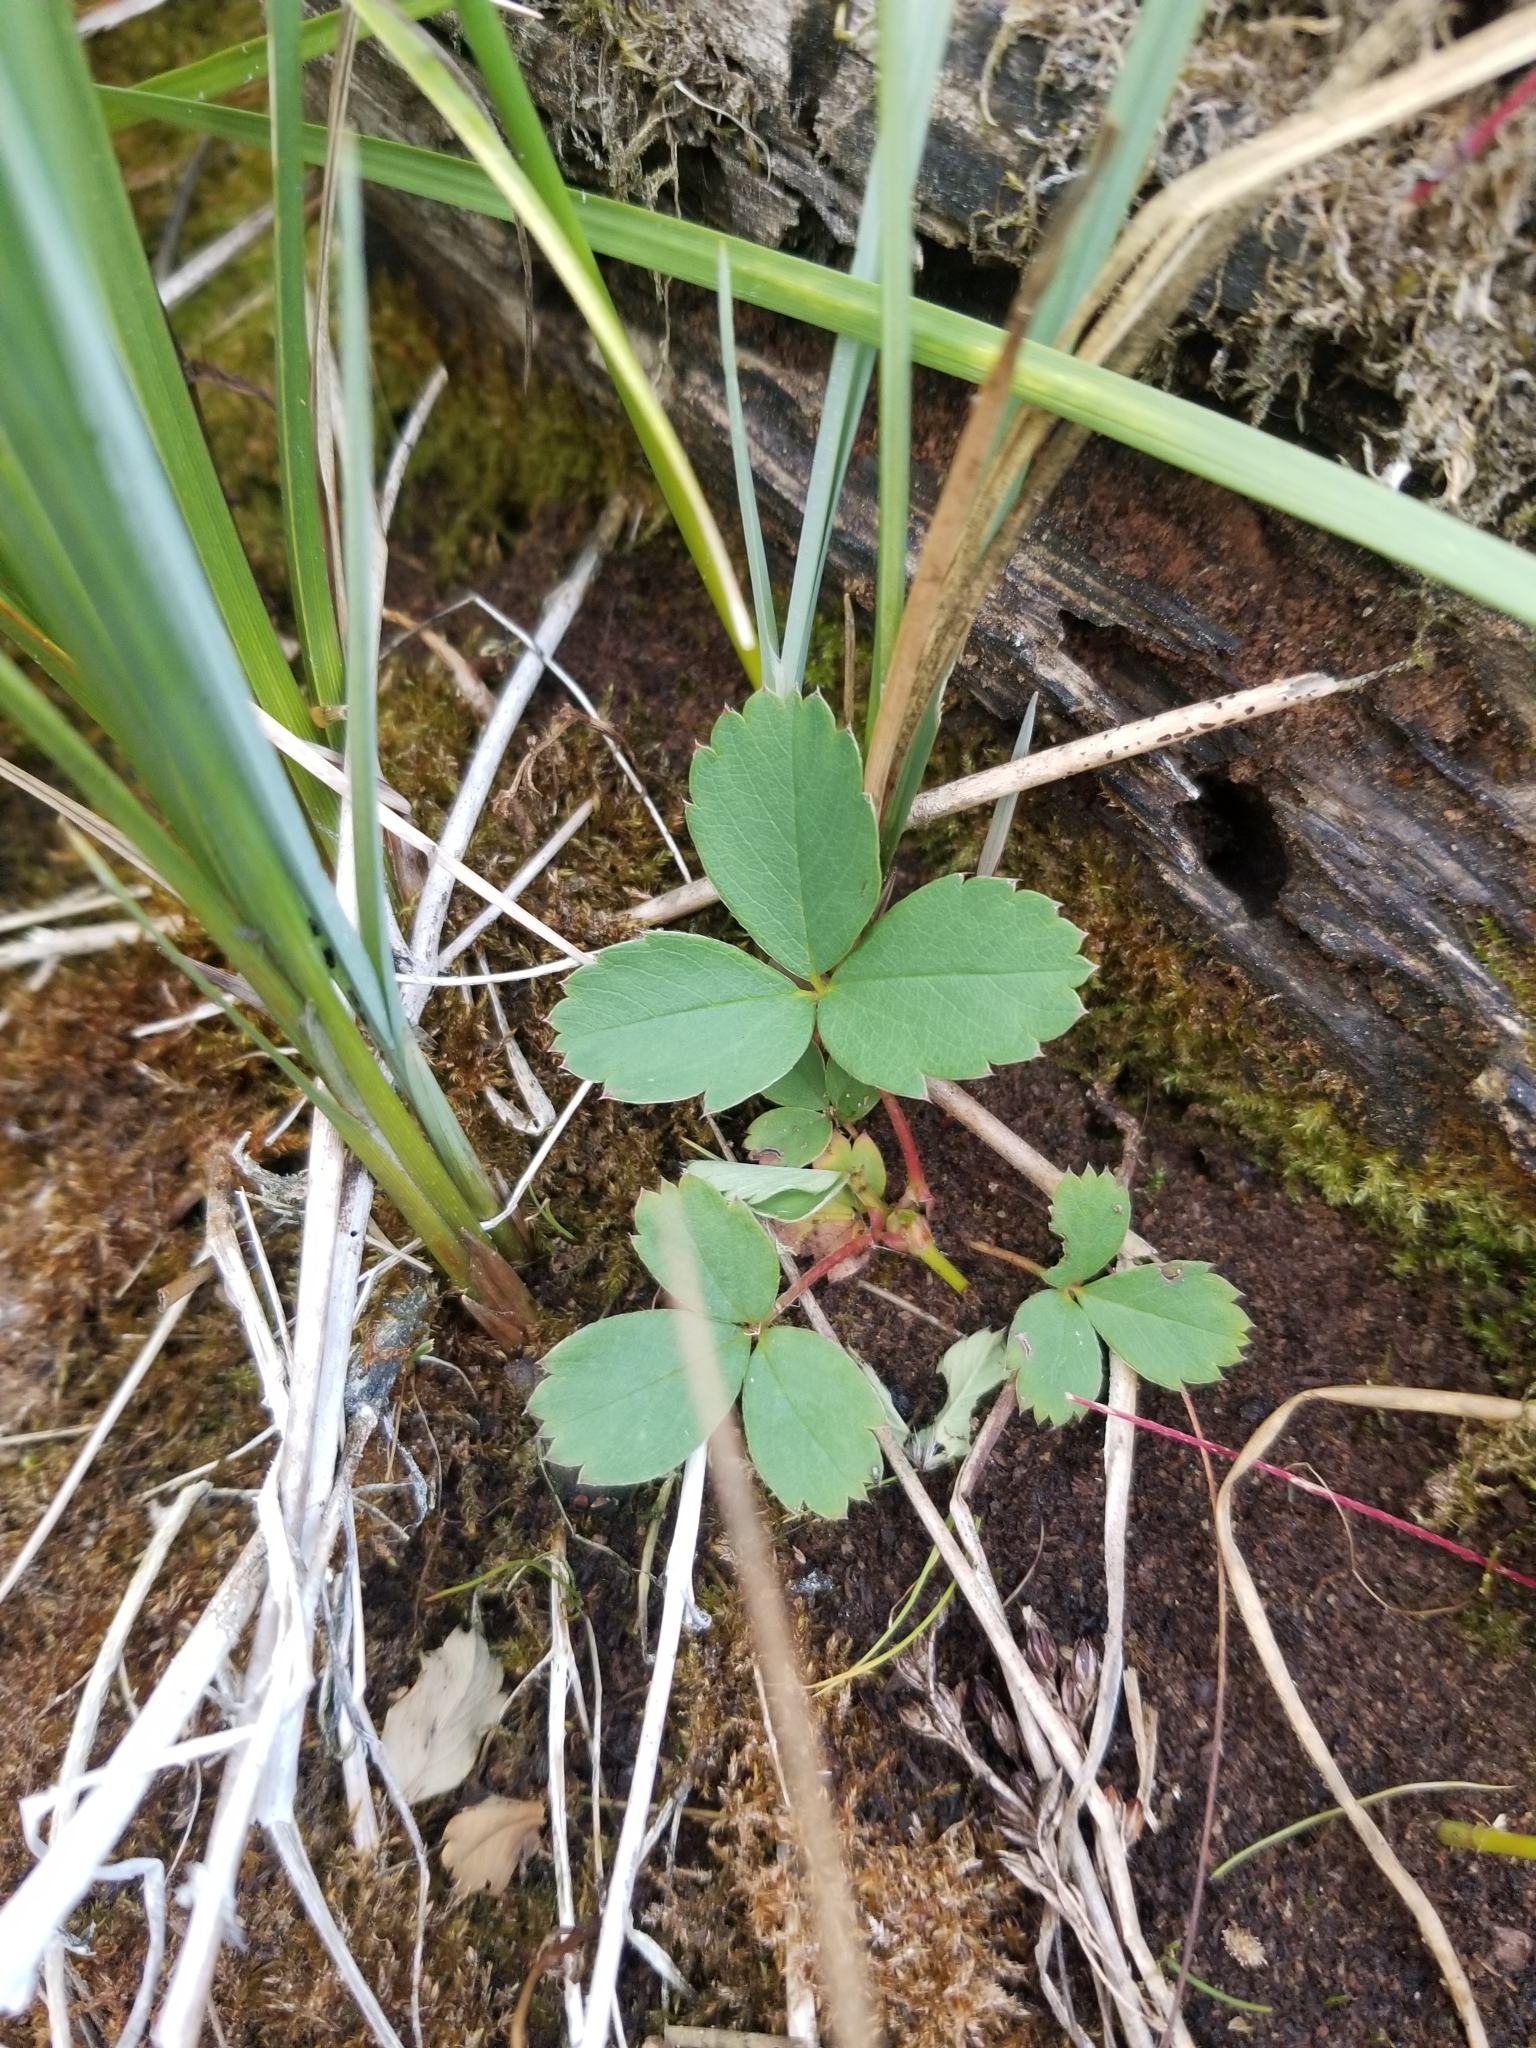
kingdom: Plantae
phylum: Tracheophyta
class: Magnoliopsida
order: Rosales
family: Rosaceae
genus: Fragaria
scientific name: Fragaria virginiana
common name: Thickleaved wild strawberry
